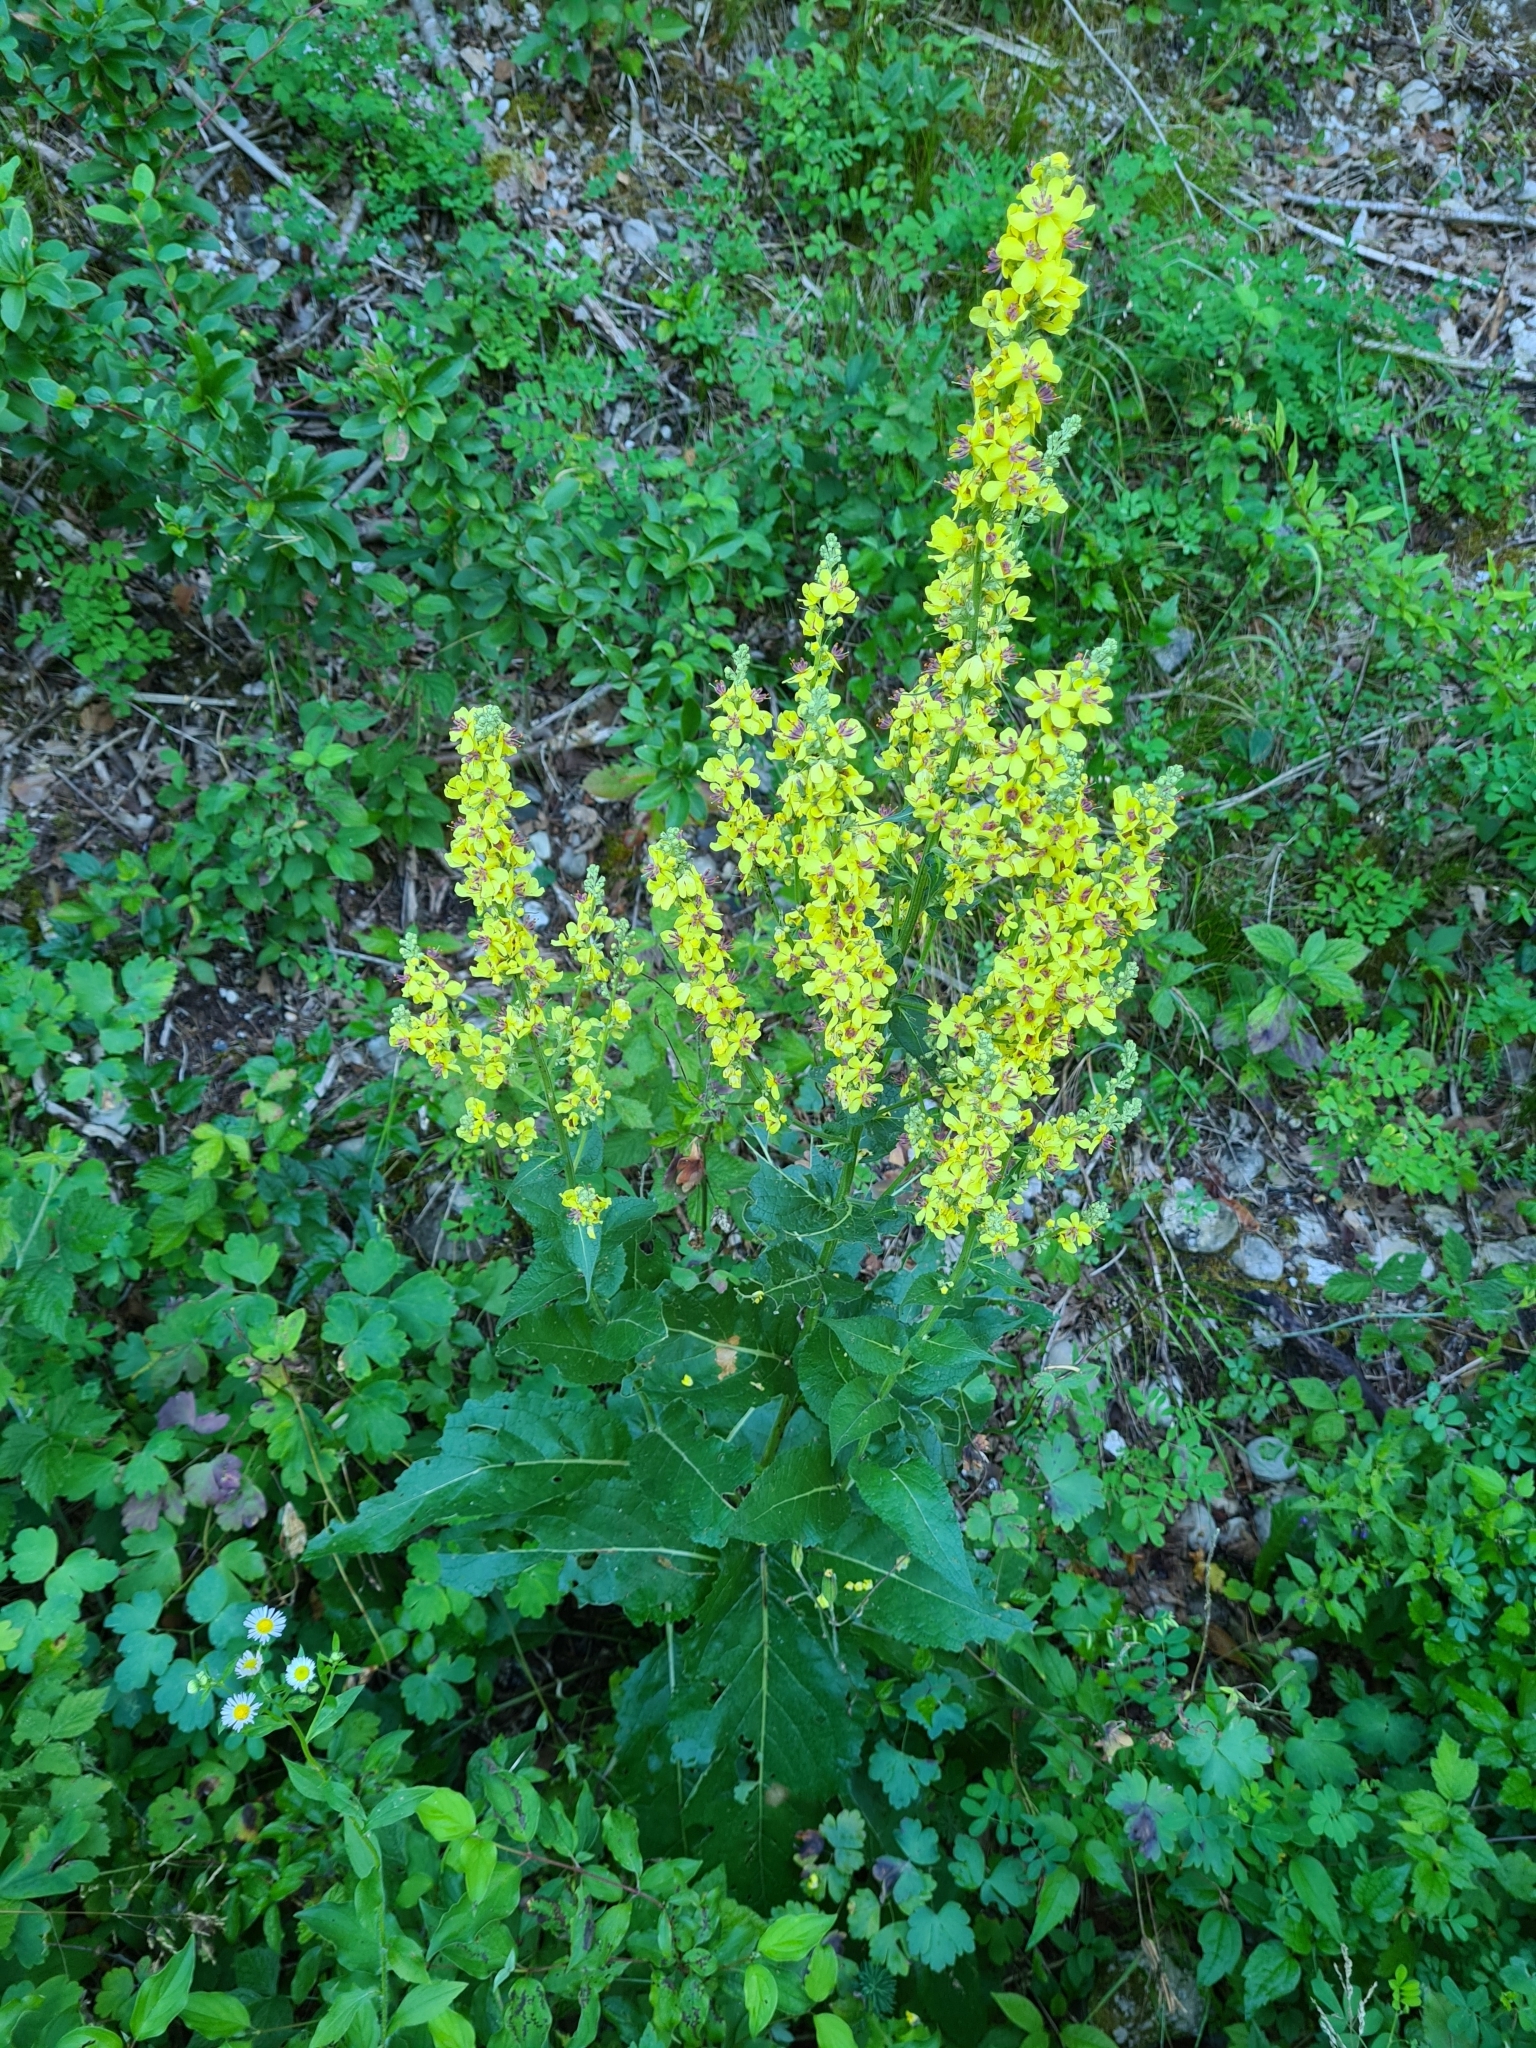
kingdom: Plantae
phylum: Tracheophyta
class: Magnoliopsida
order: Lamiales
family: Scrophulariaceae
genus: Verbascum
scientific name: Verbascum chaixii
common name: Nettle-leaved mullein
